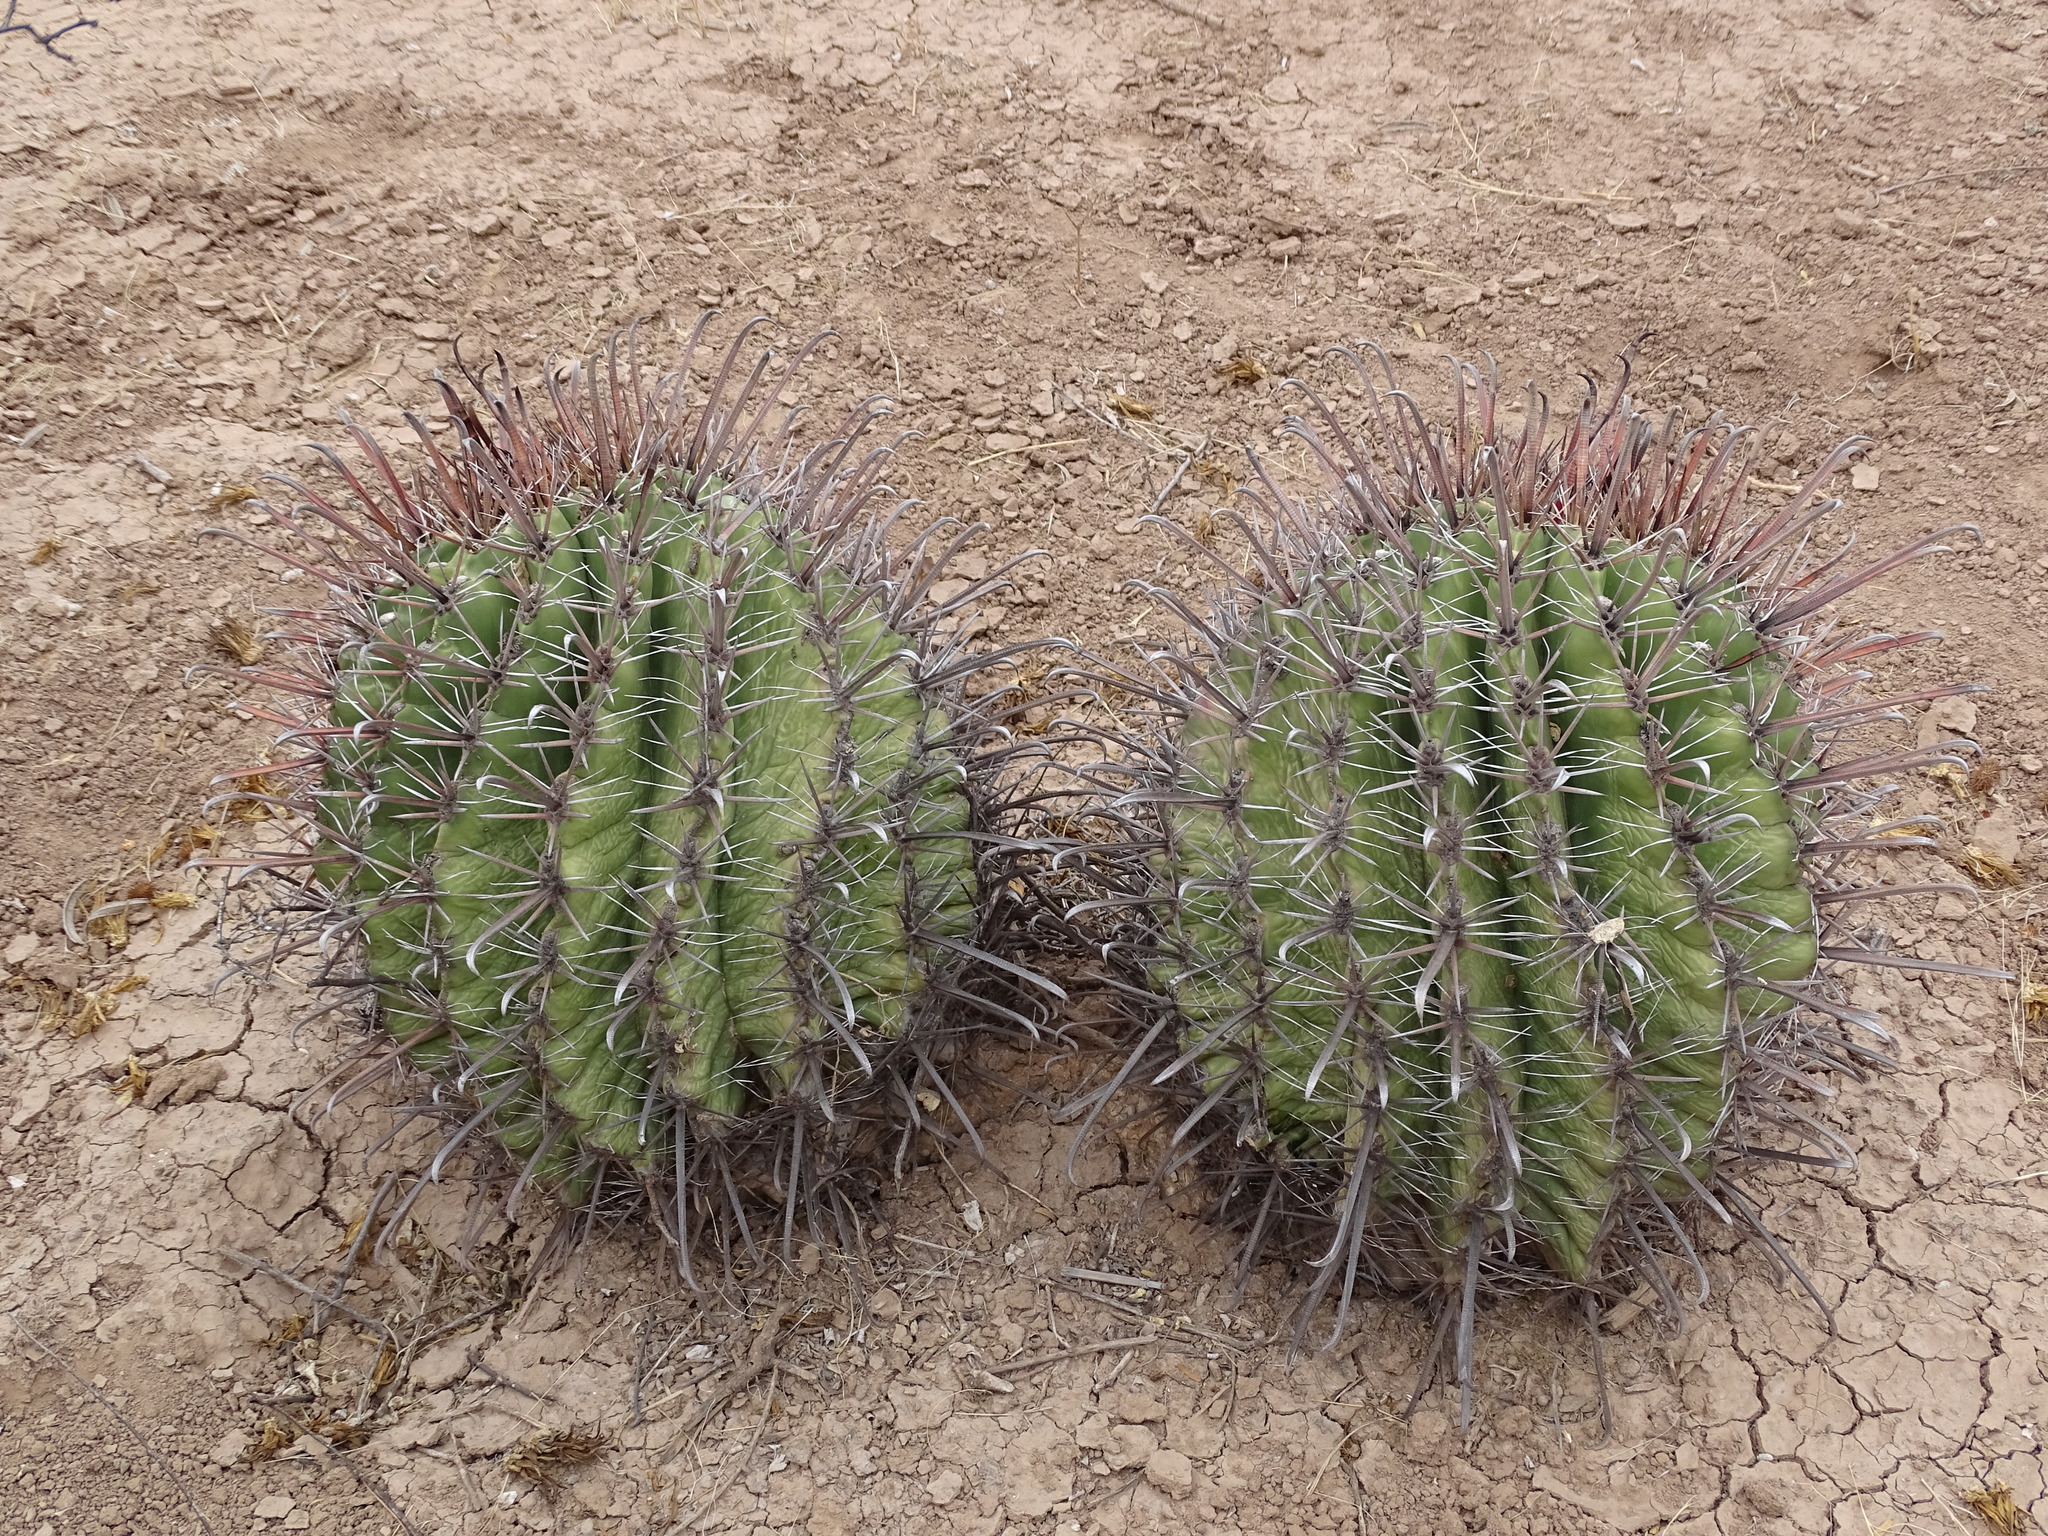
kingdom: Plantae
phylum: Tracheophyta
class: Magnoliopsida
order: Caryophyllales
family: Cactaceae
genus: Ferocactus
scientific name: Ferocactus wislizeni
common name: Candy barrel cactus
